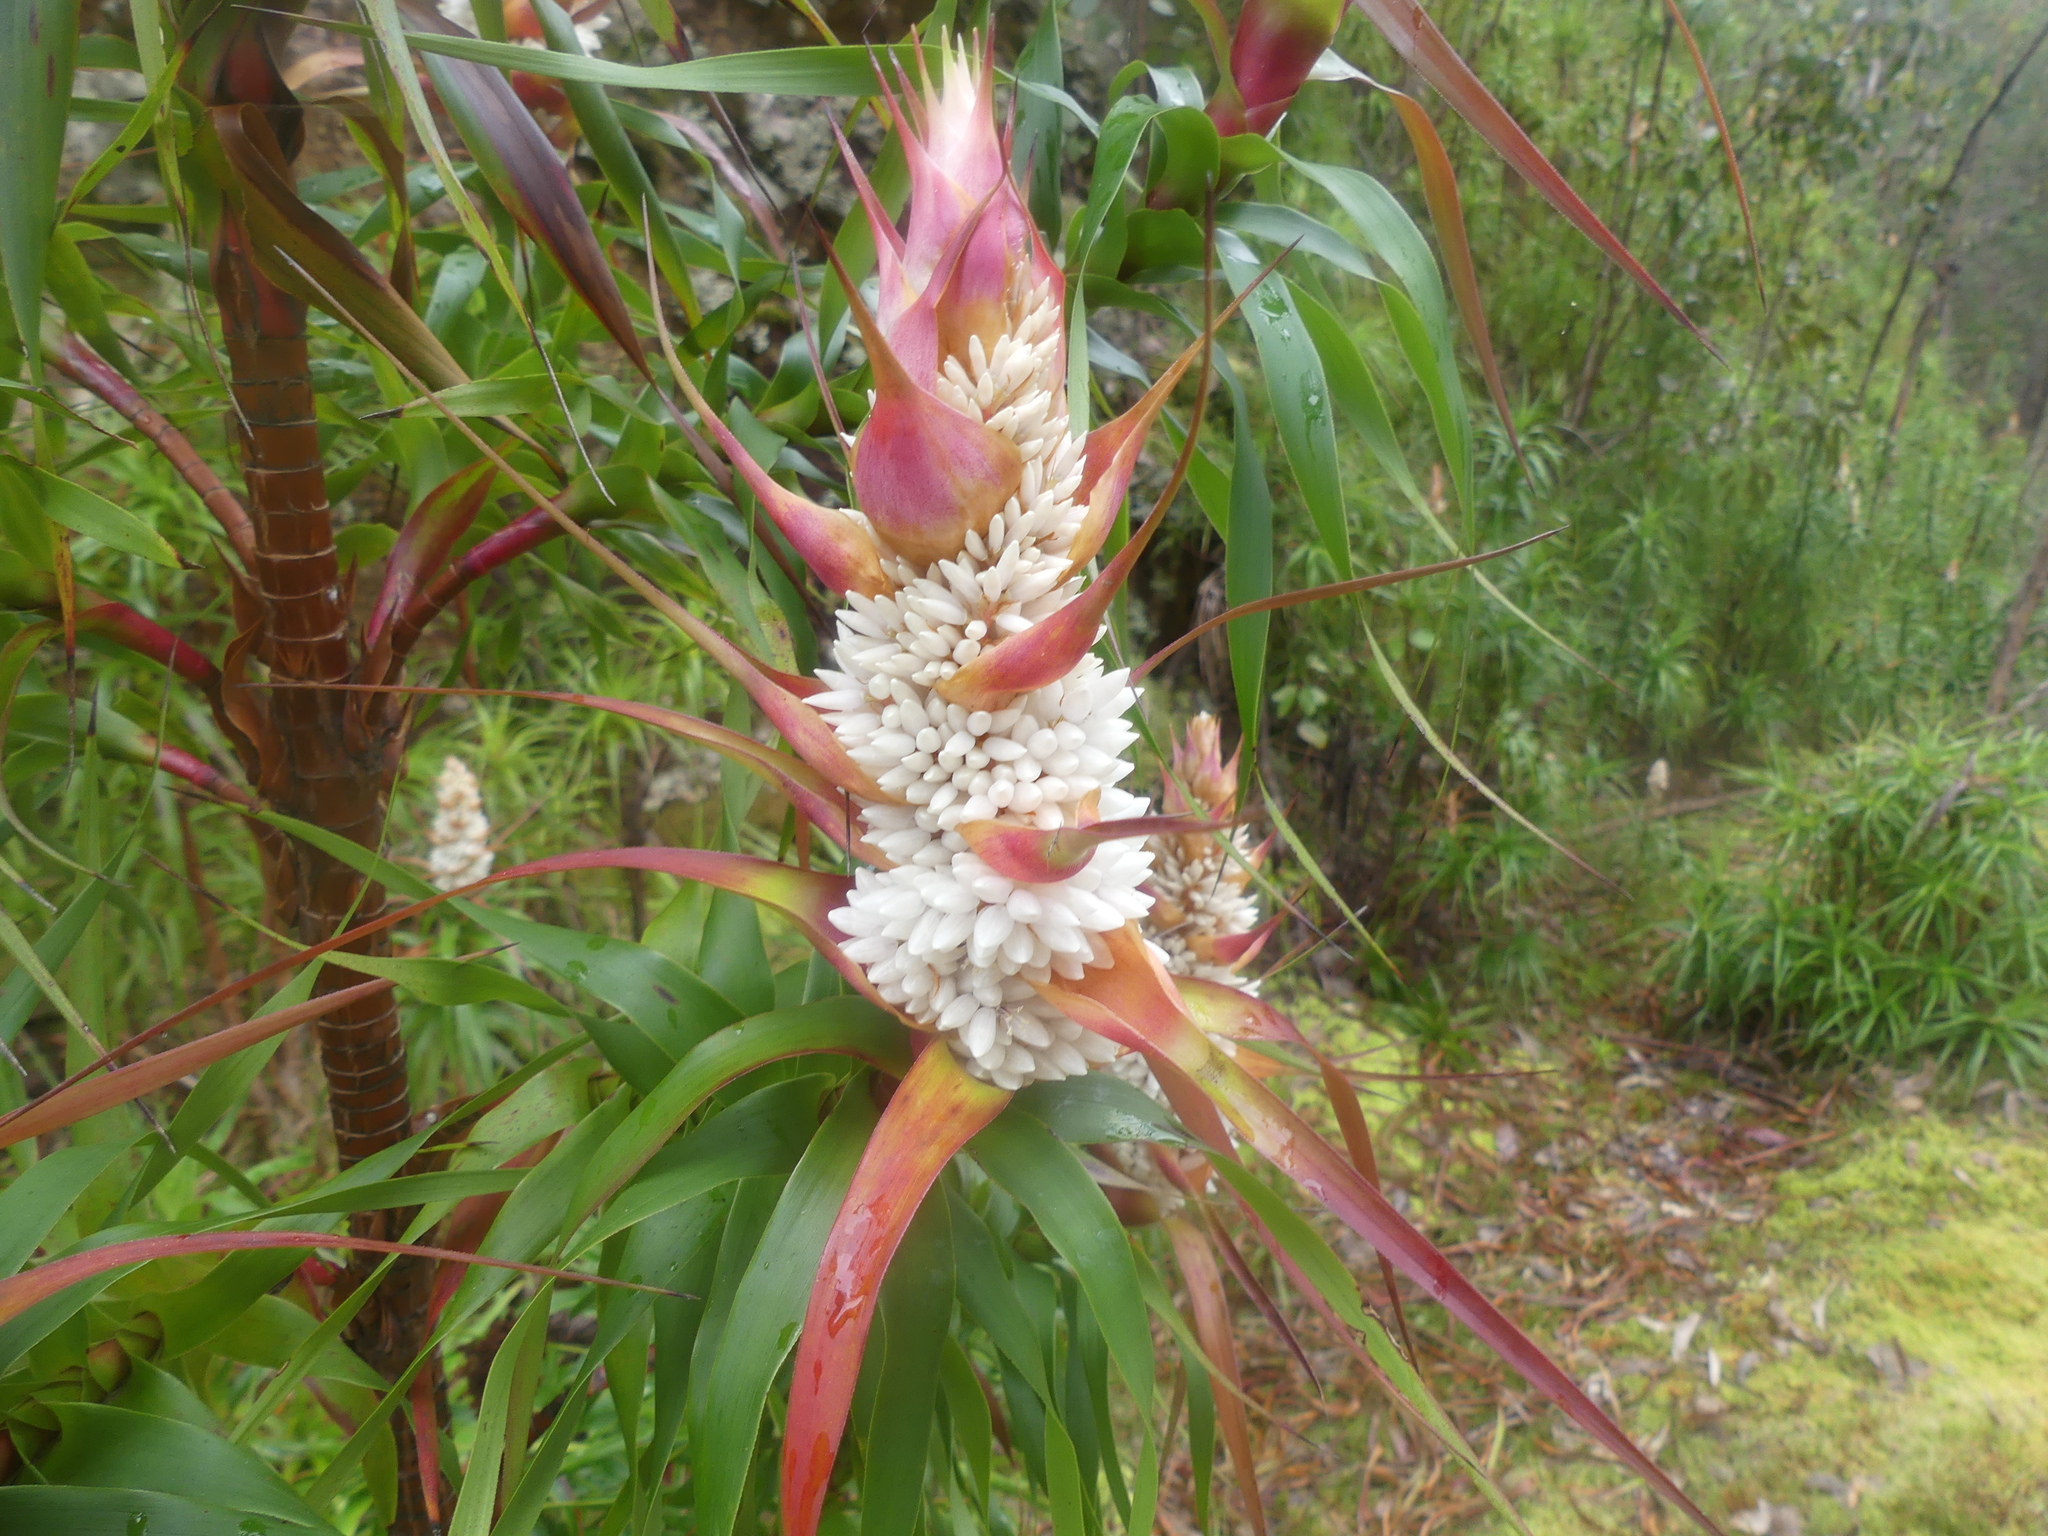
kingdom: Plantae
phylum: Tracheophyta
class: Magnoliopsida
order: Ericales
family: Ericaceae
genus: Dracophyllum
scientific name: Dracophyllum desgrazii
